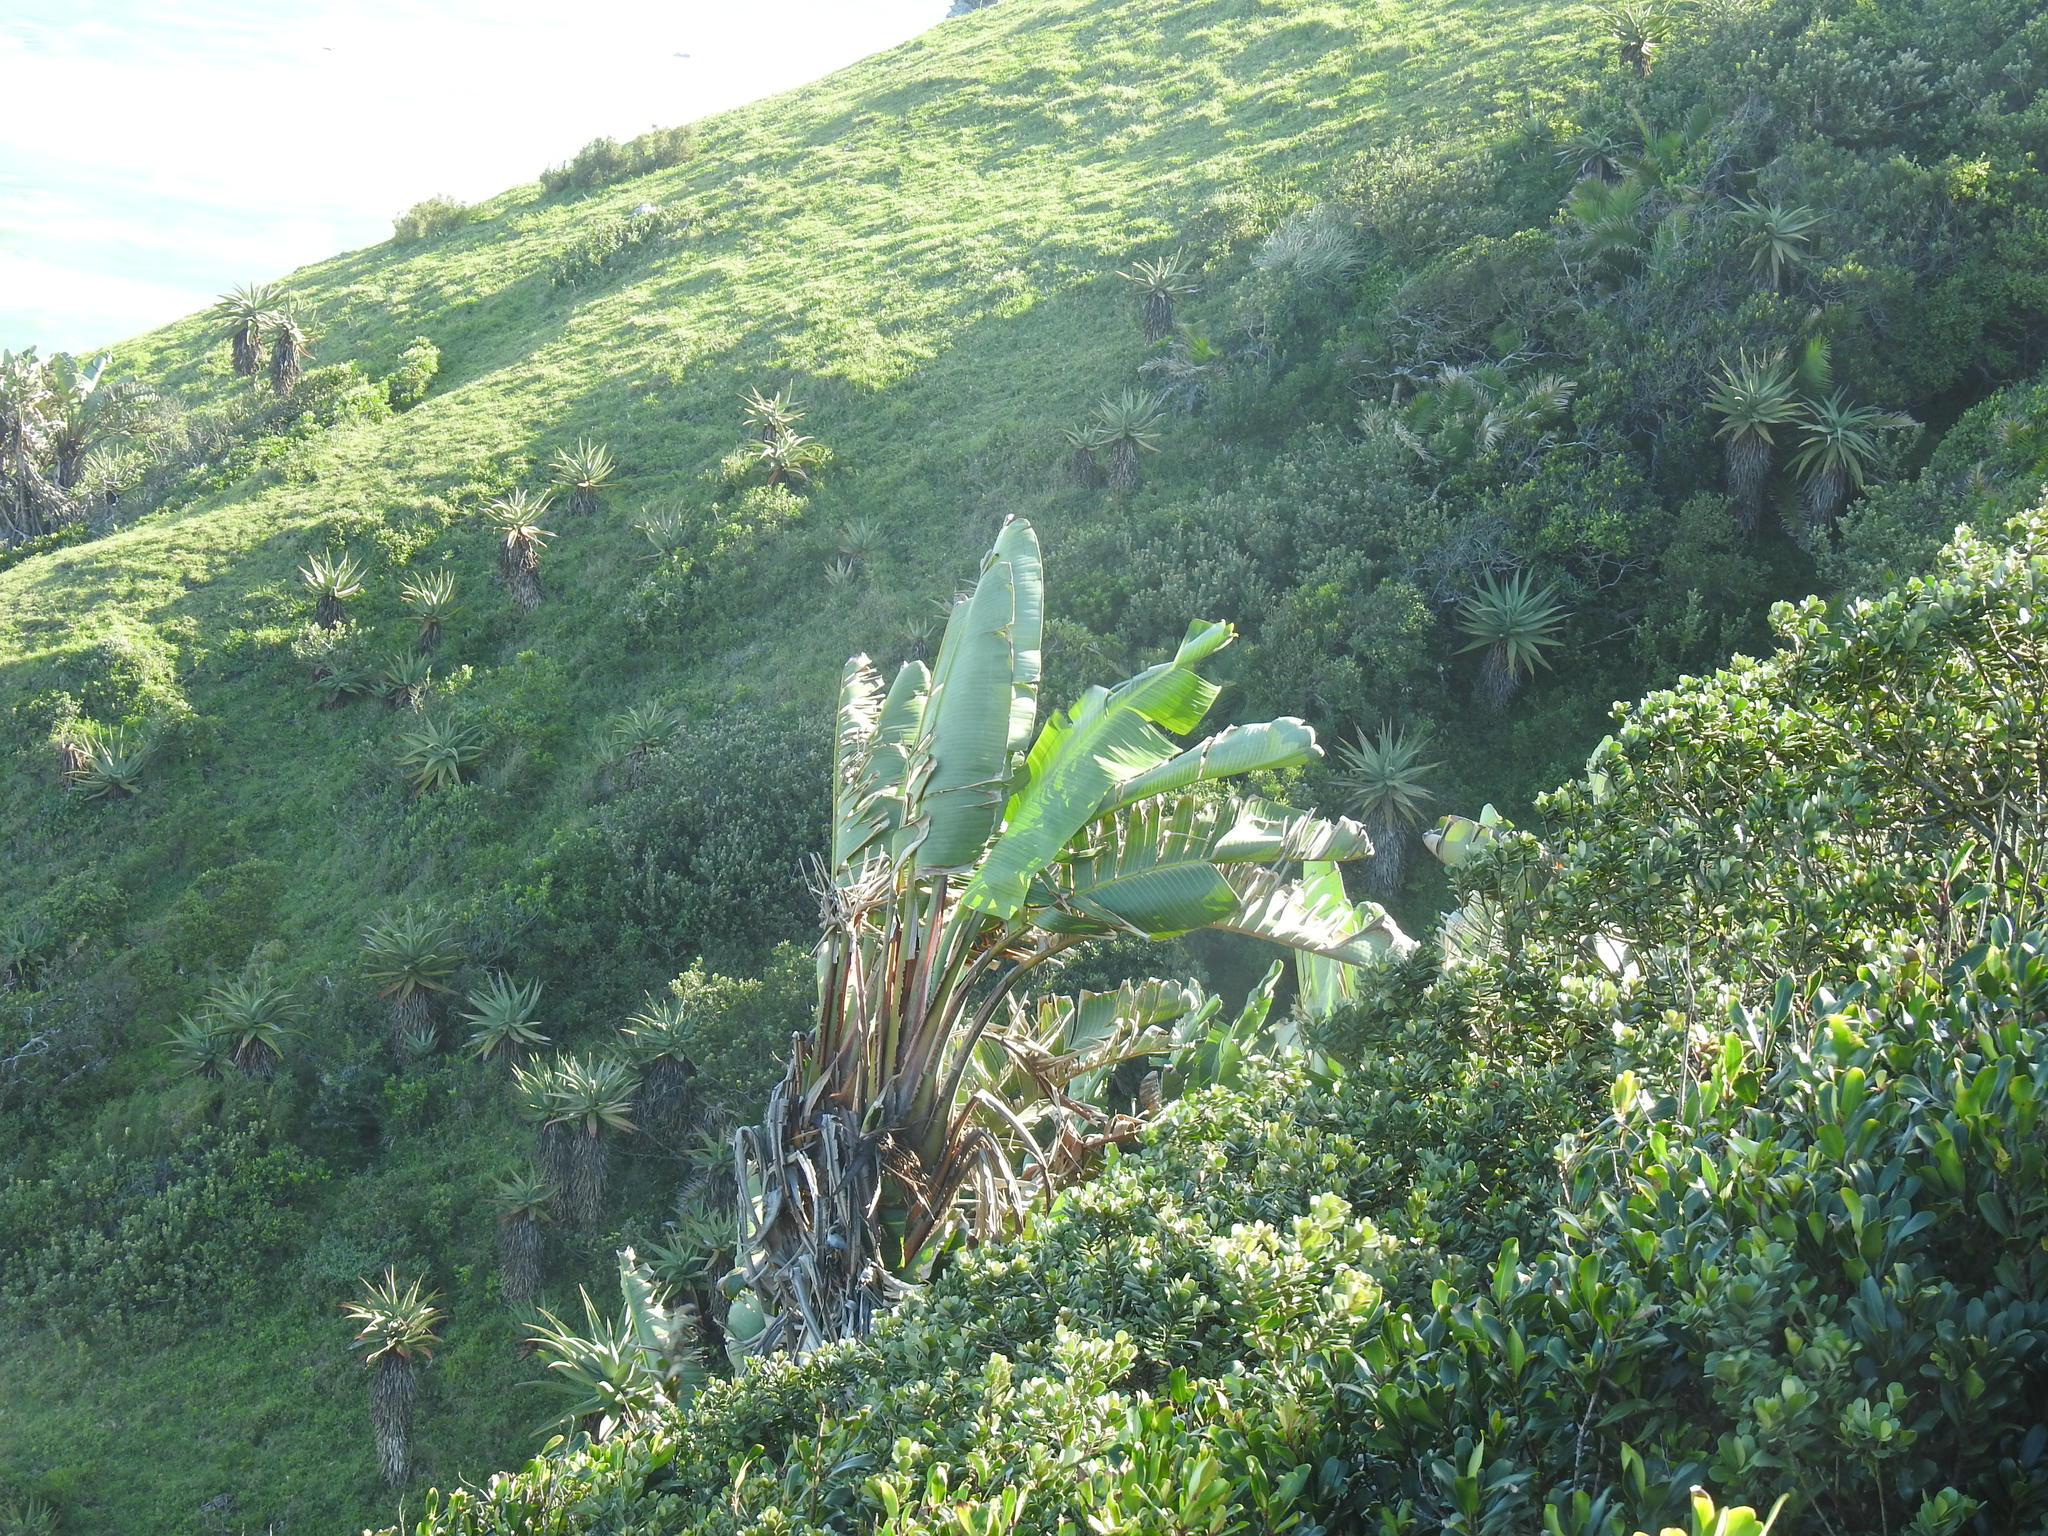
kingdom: Plantae
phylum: Tracheophyta
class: Liliopsida
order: Zingiberales
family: Strelitziaceae
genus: Strelitzia
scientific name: Strelitzia nicolai
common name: Bird-of-paradise tree
